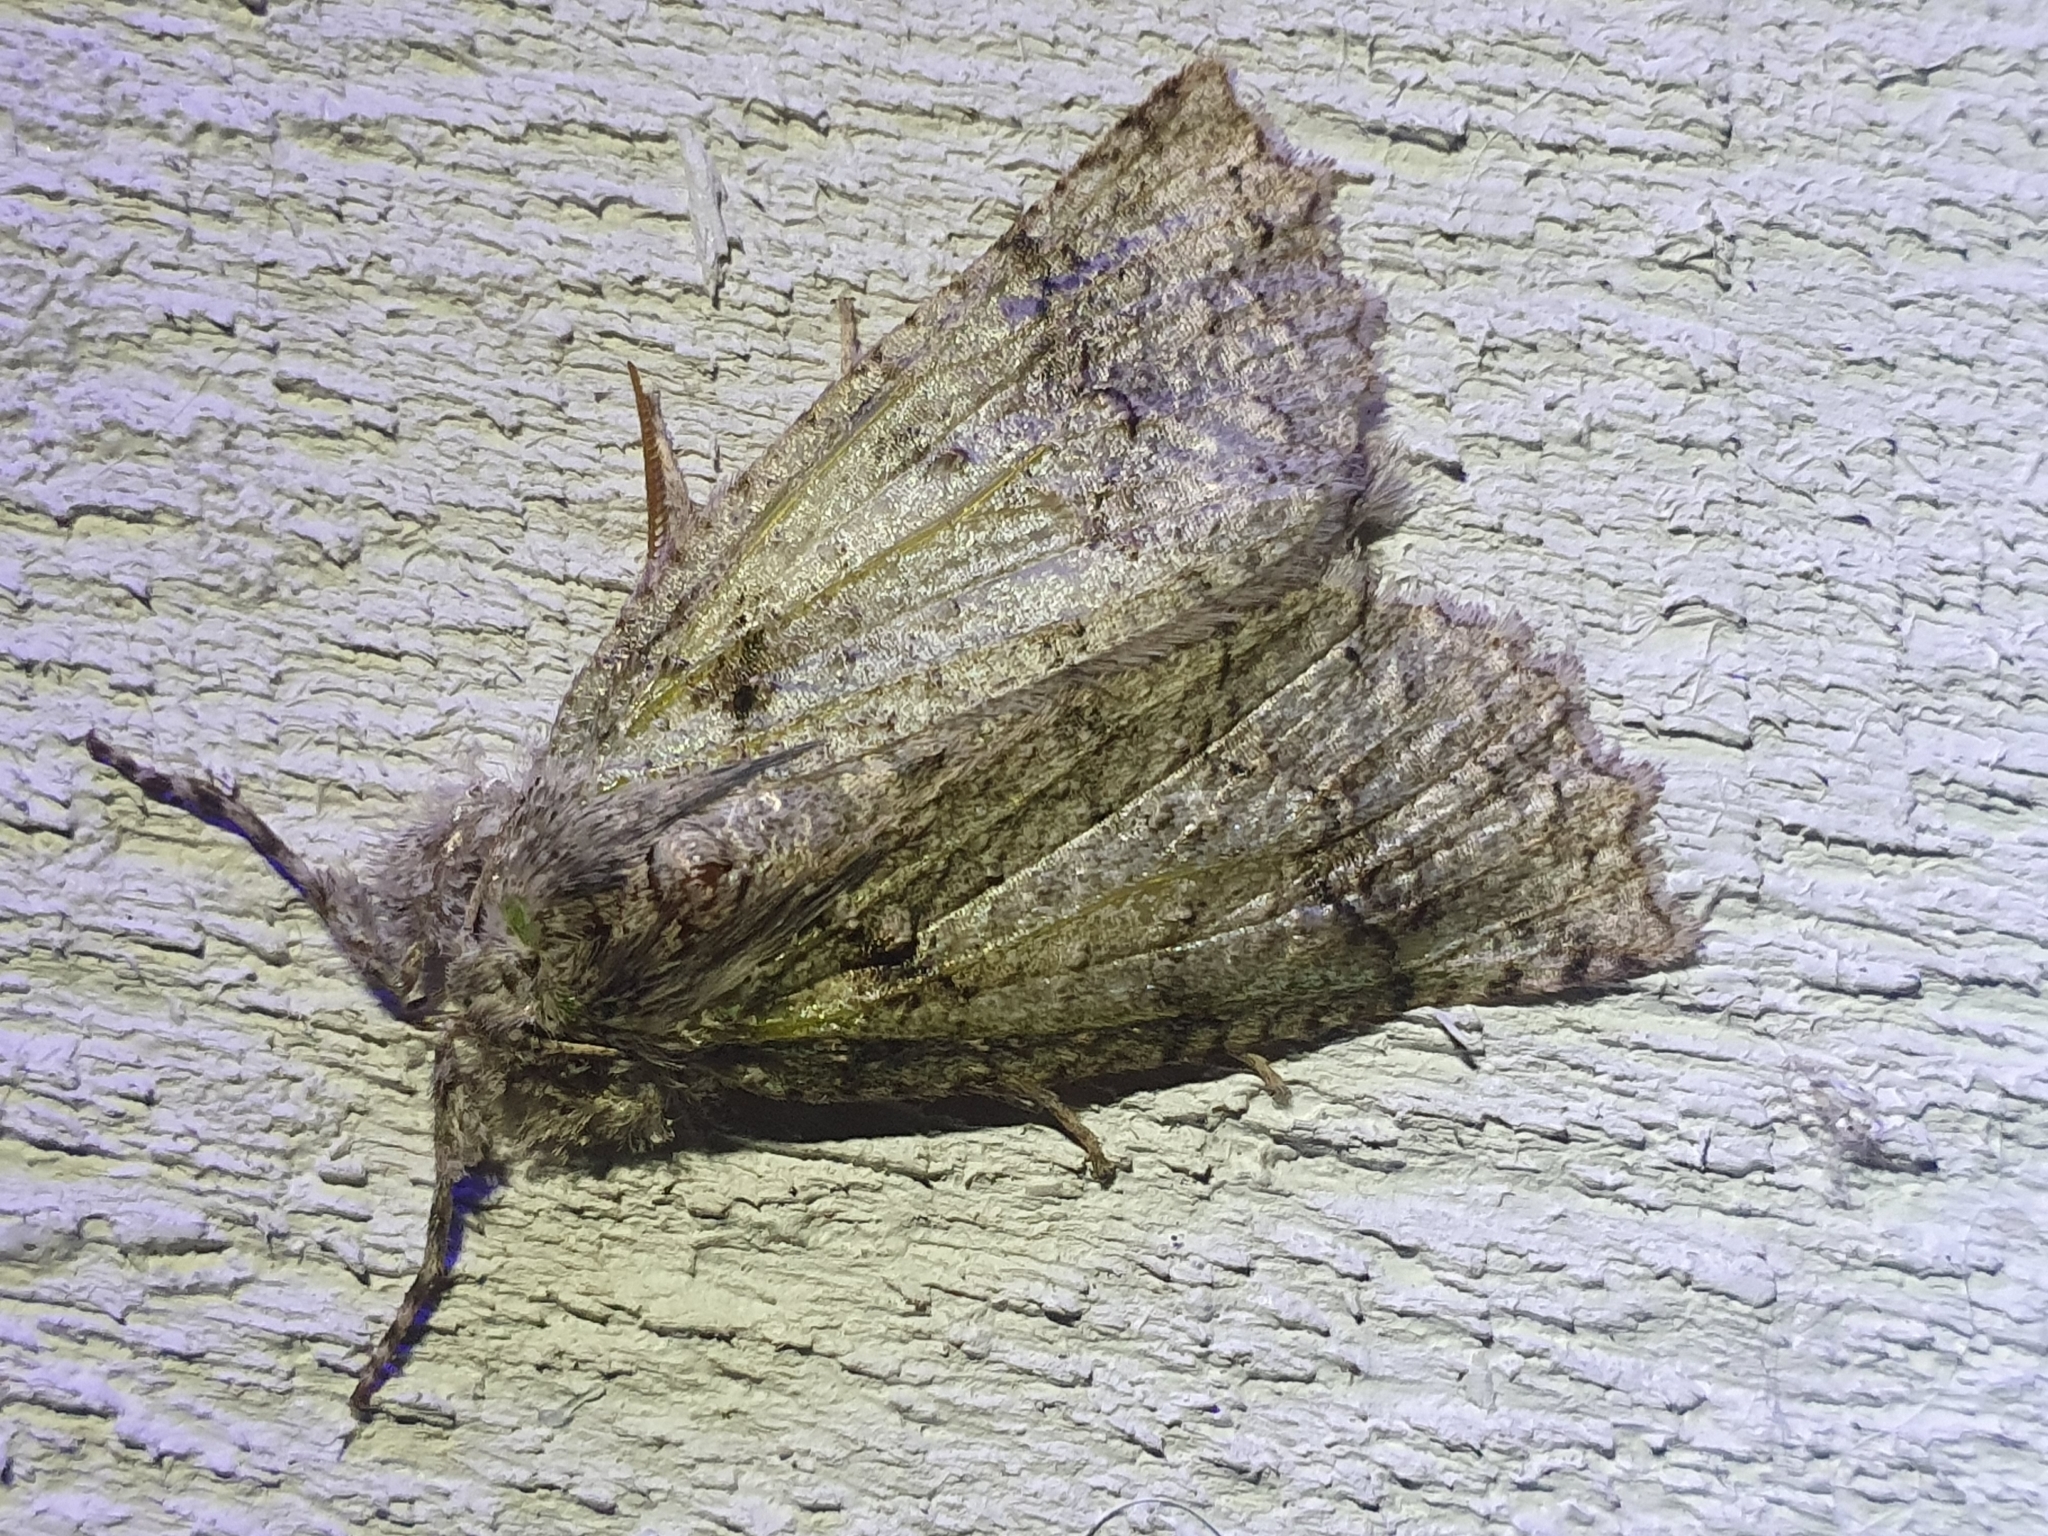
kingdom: Animalia
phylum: Arthropoda
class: Insecta
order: Lepidoptera
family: Geometridae
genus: Declana
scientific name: Declana floccosa
